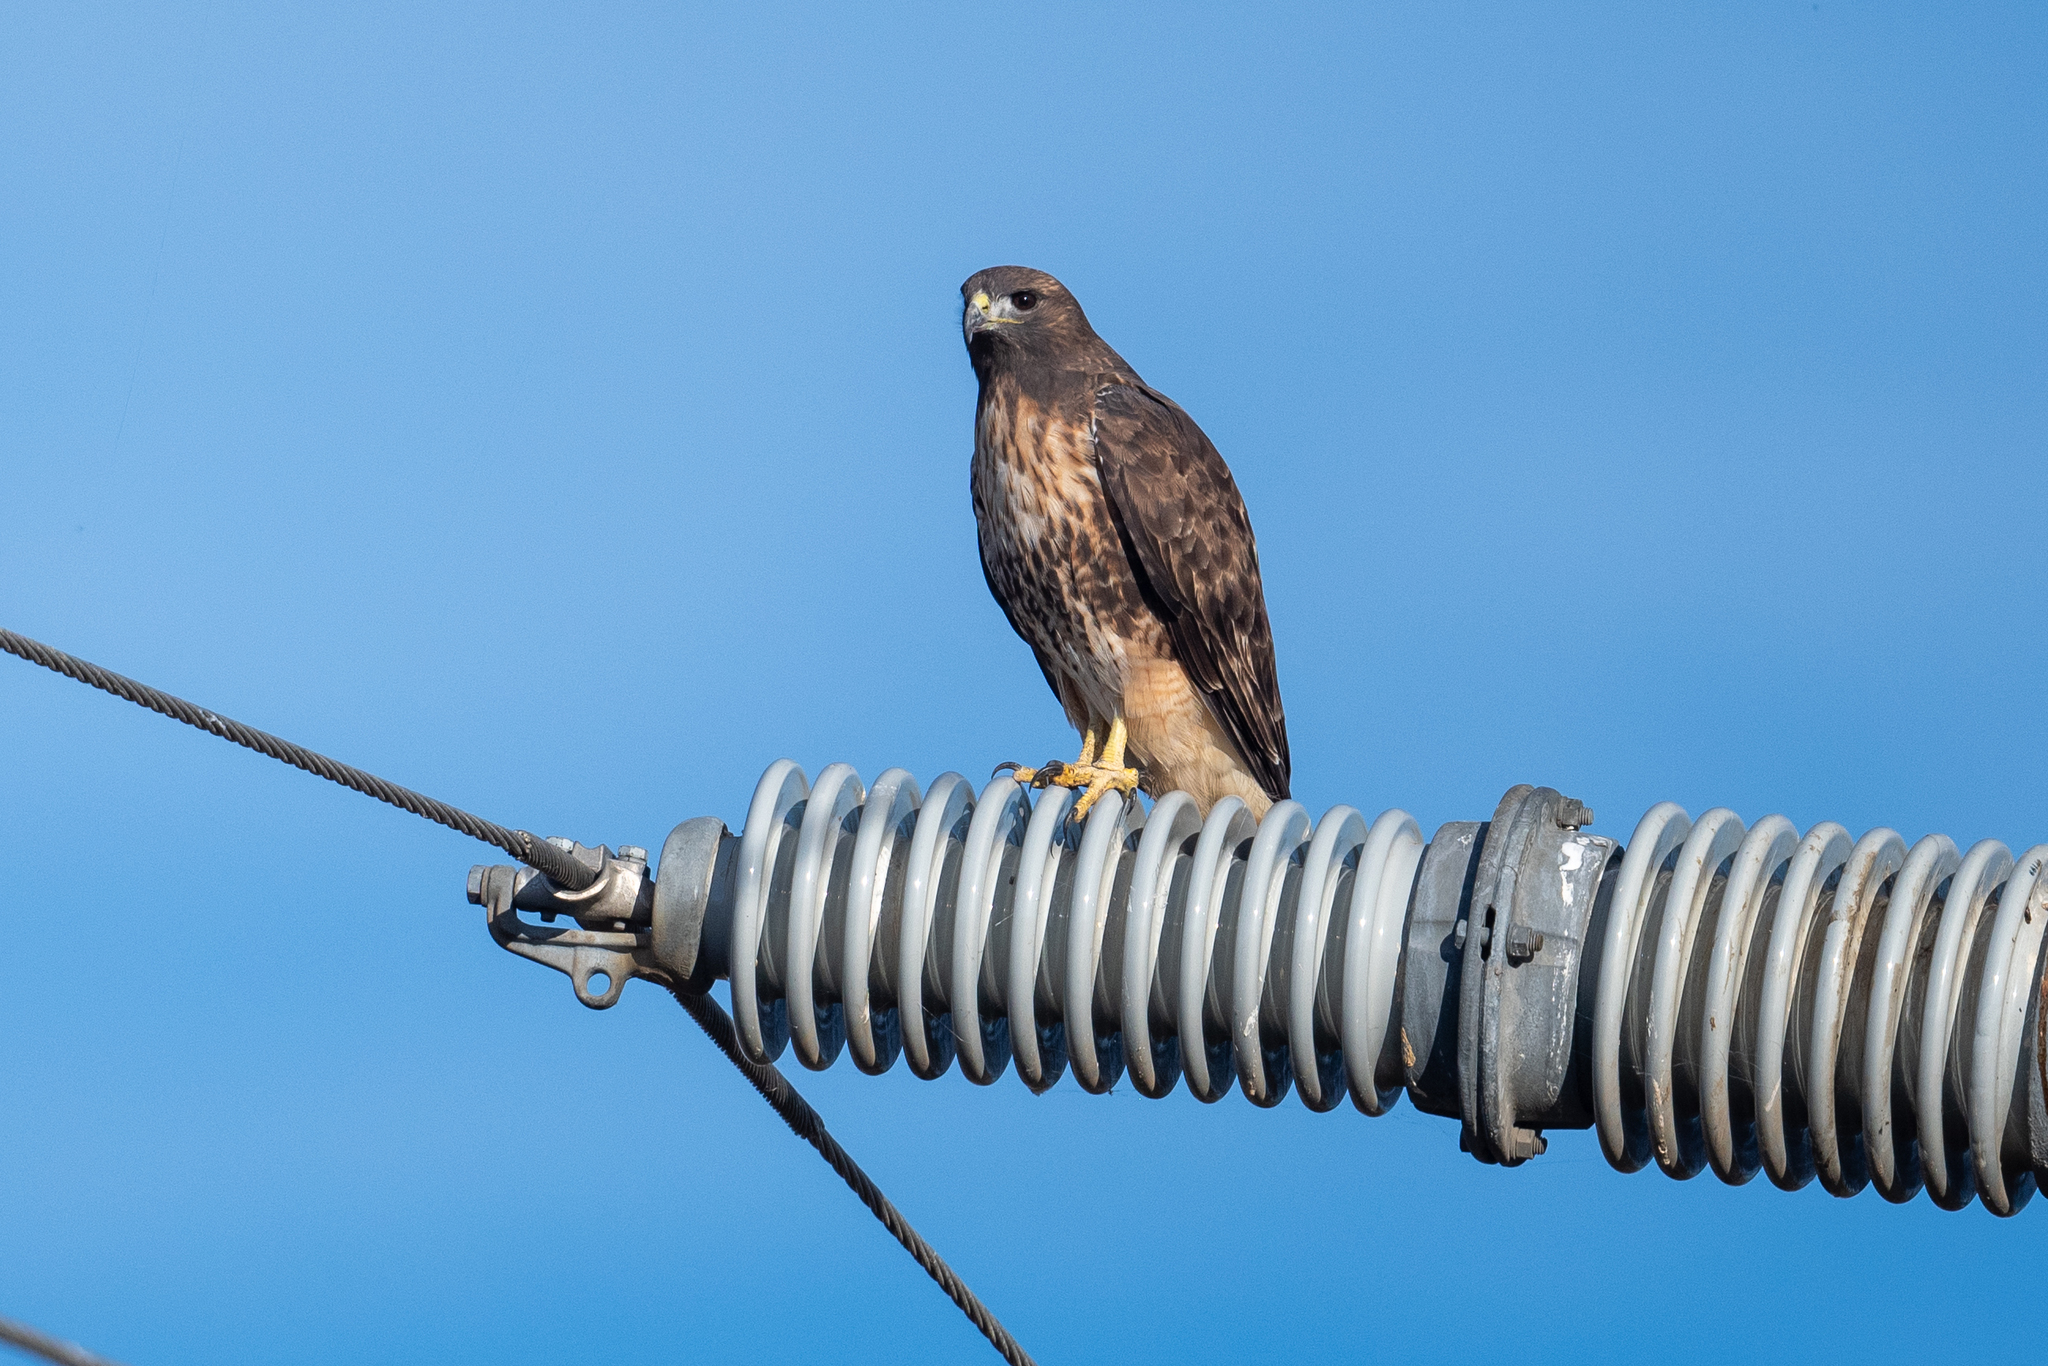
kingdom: Animalia
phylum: Chordata
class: Aves
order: Accipitriformes
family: Accipitridae
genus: Buteo
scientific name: Buteo jamaicensis
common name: Red-tailed hawk
